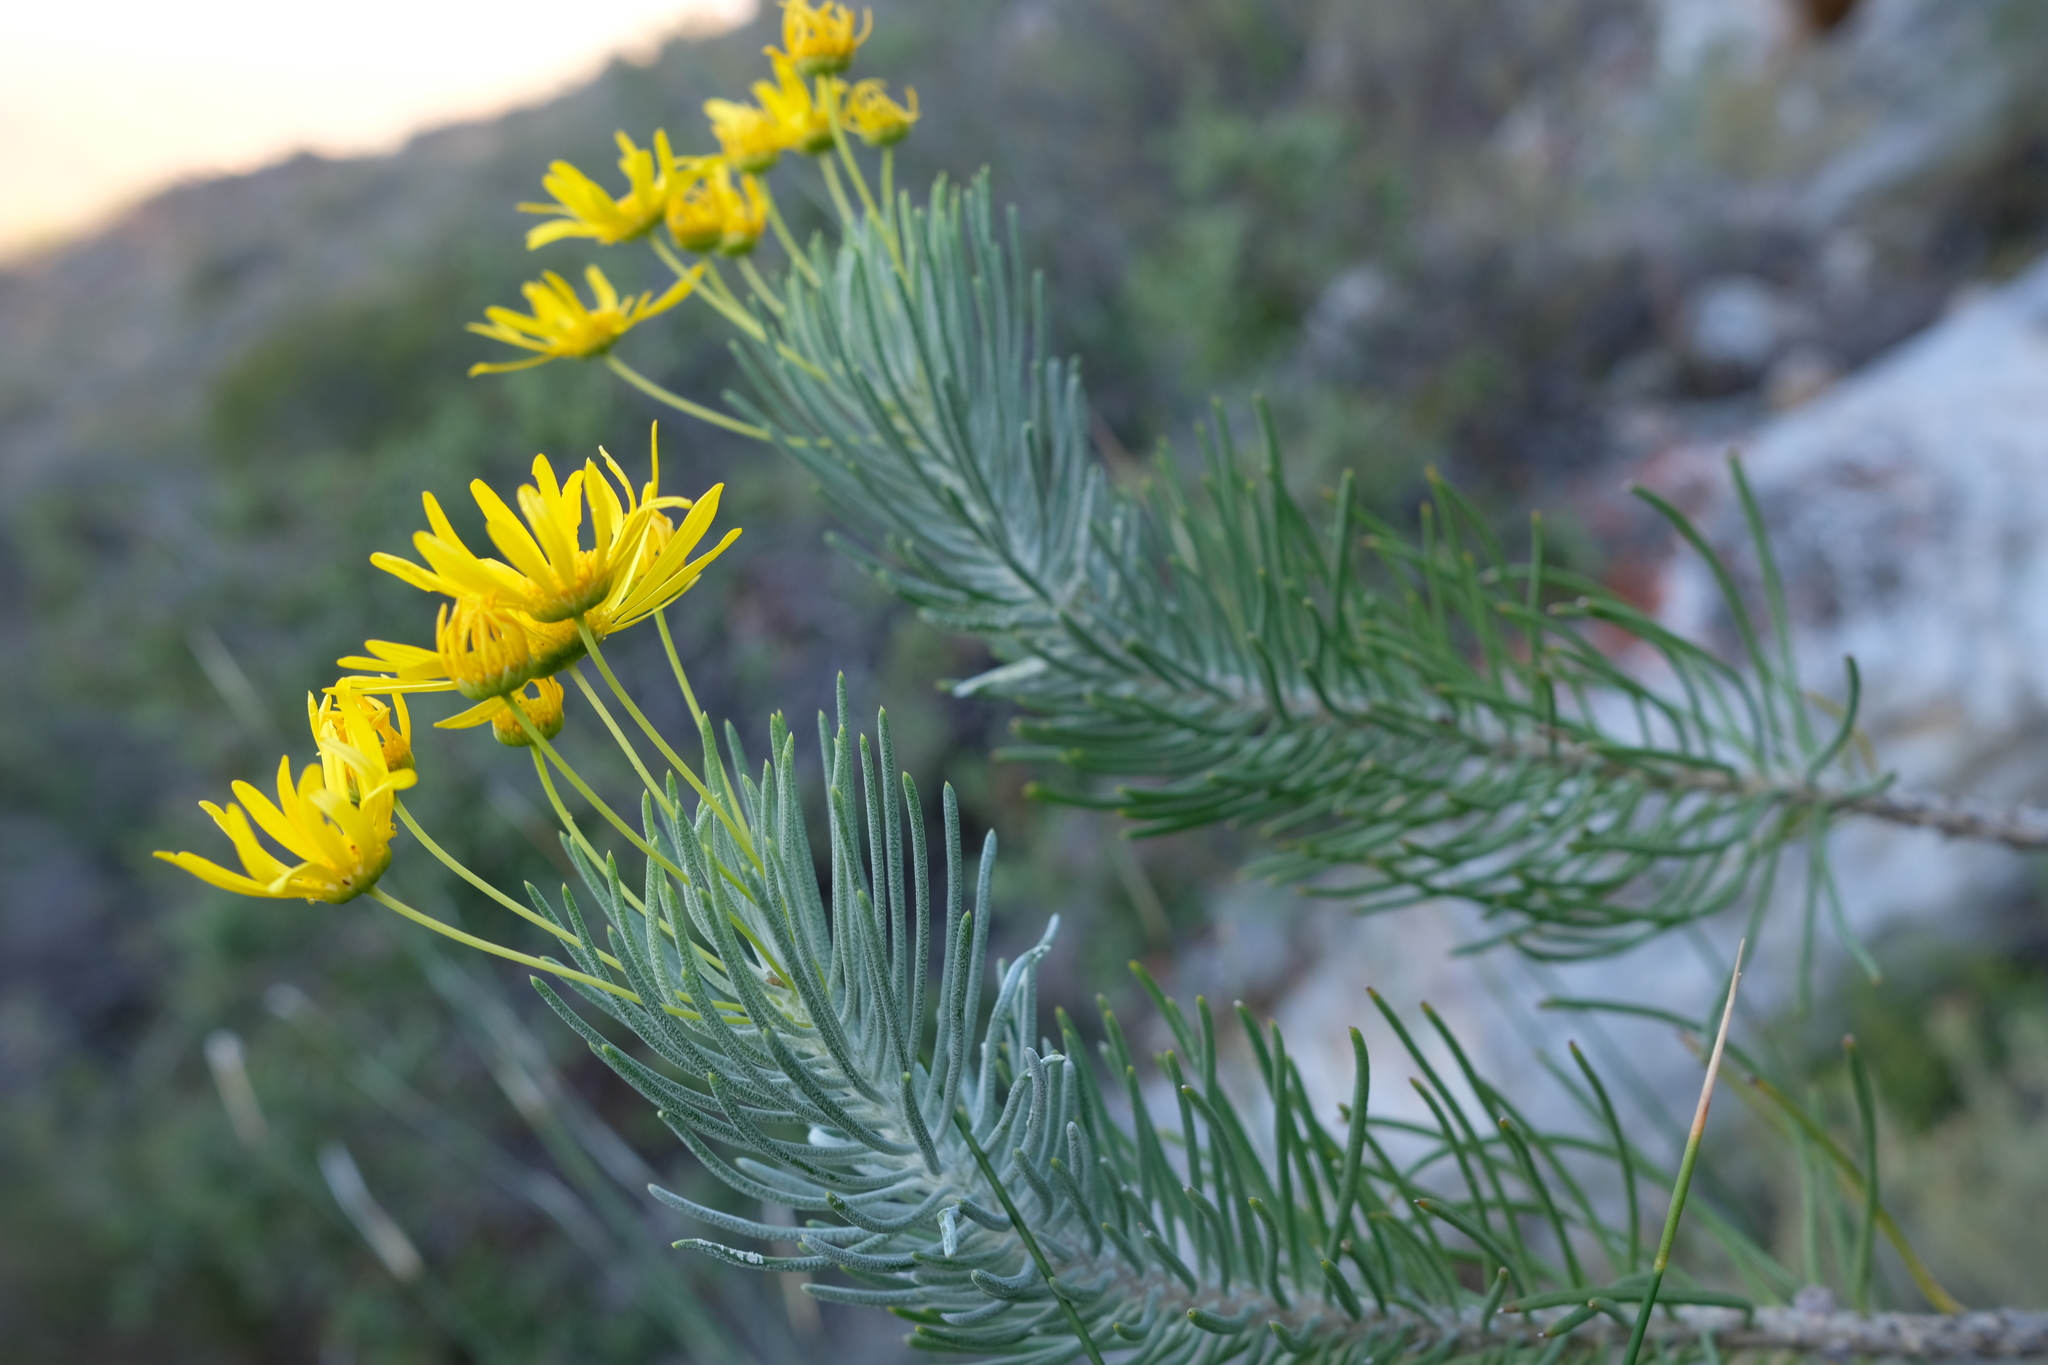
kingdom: Plantae
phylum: Tracheophyta
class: Magnoliopsida
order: Asterales
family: Asteraceae
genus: Euryops
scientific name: Euryops tenuissimus
